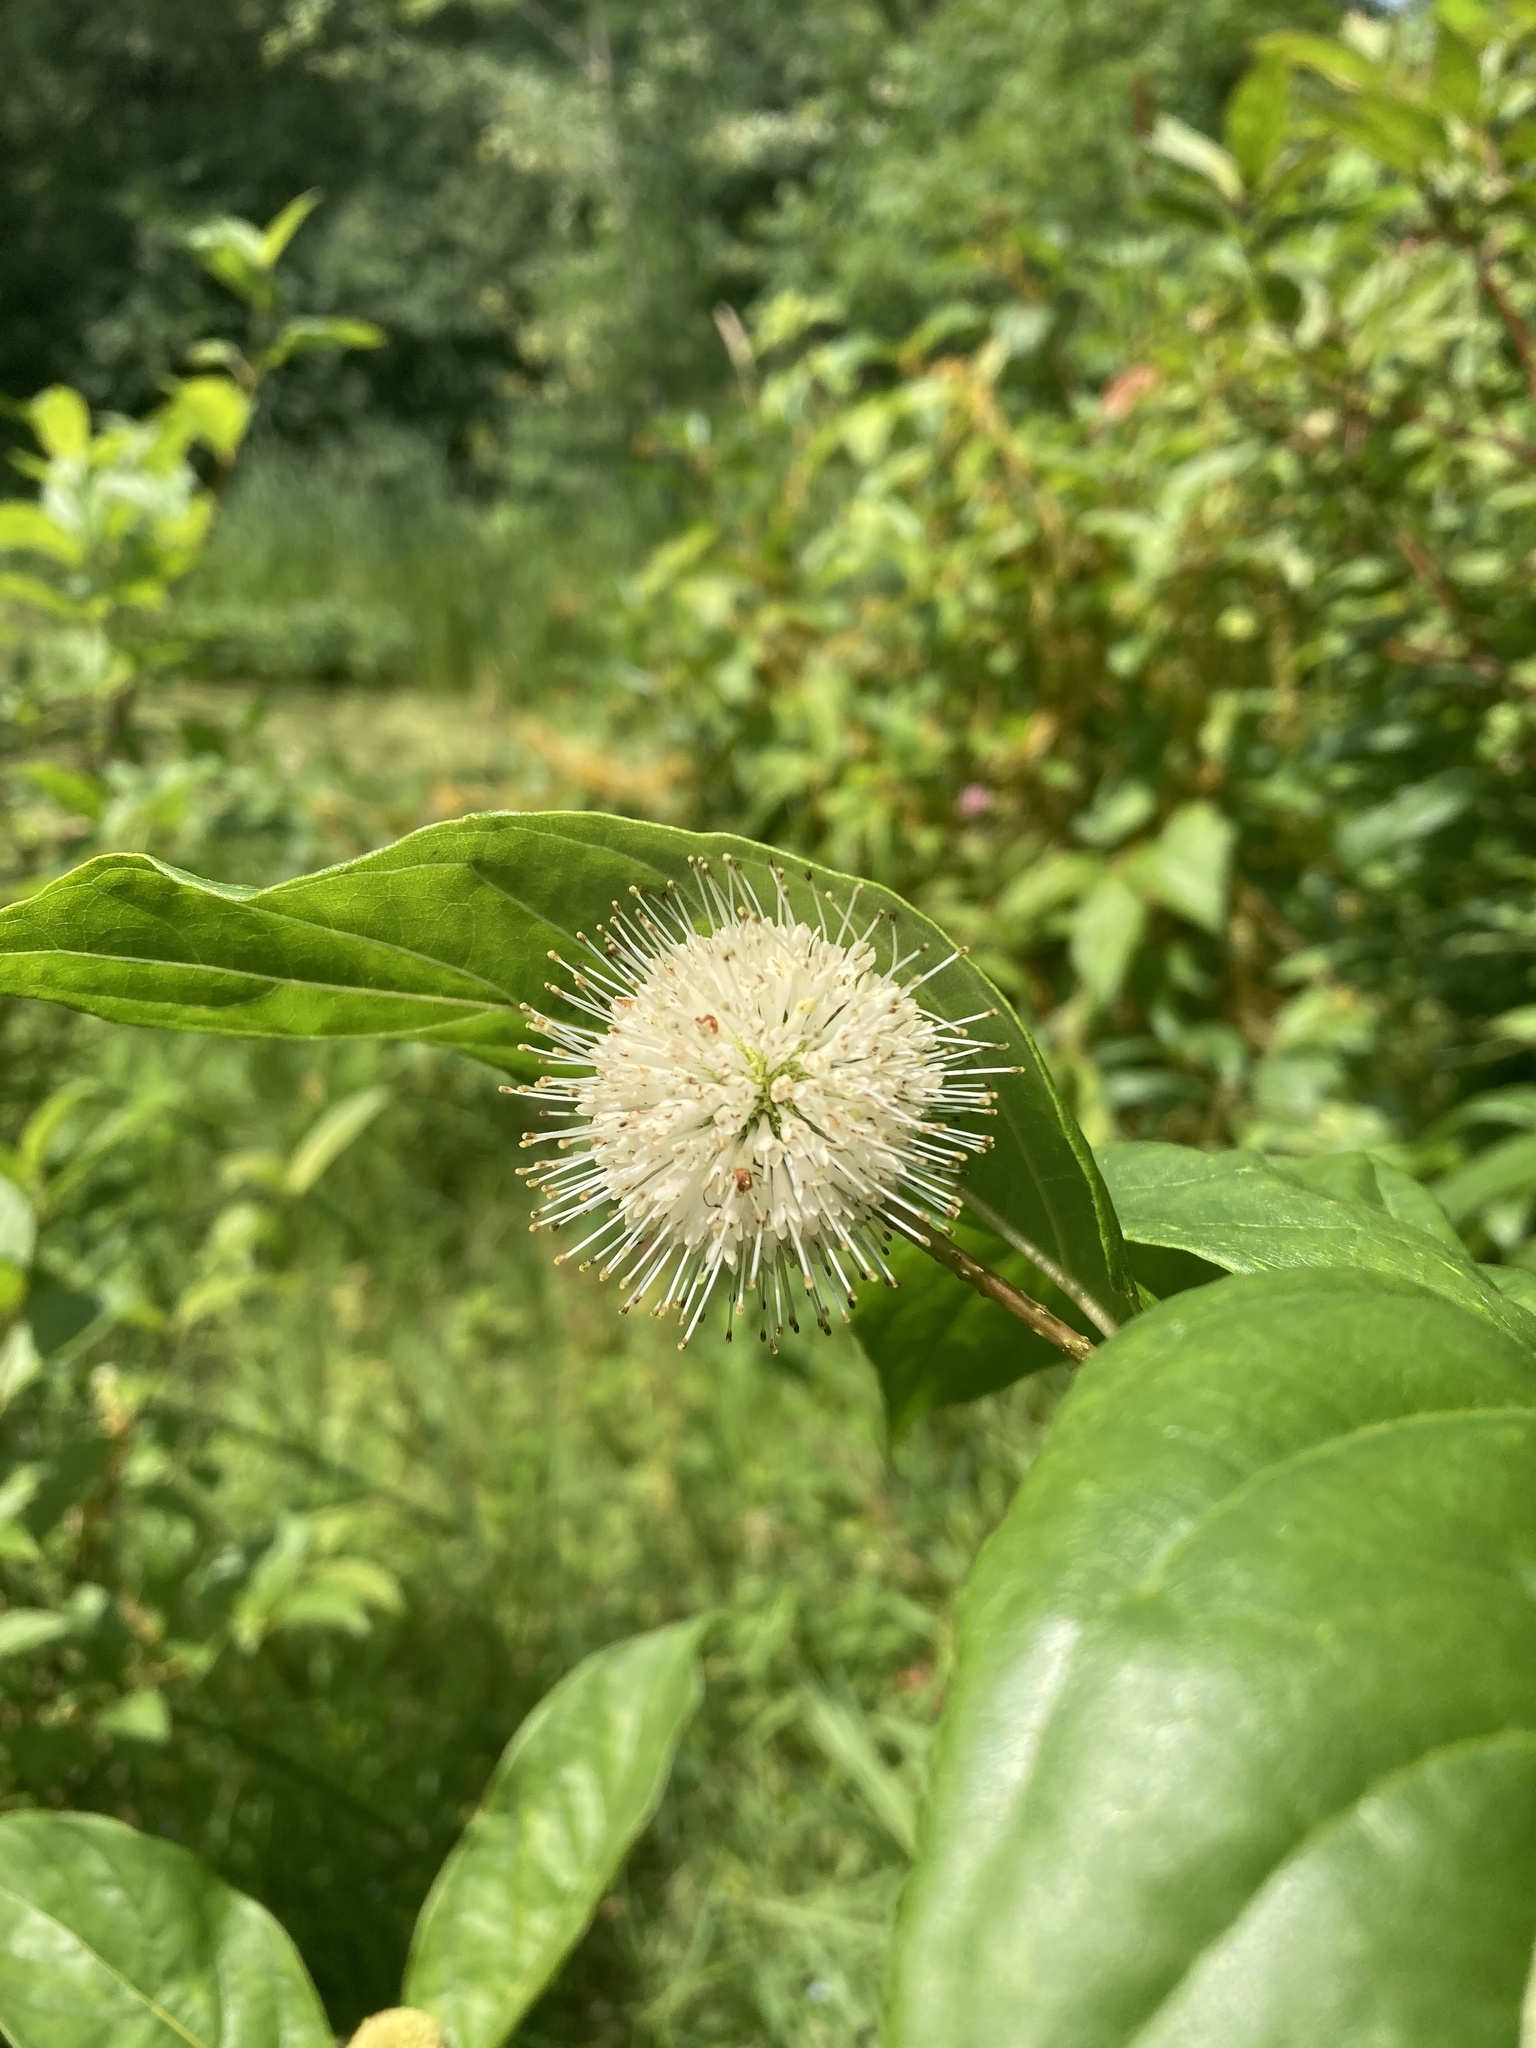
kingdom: Plantae
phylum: Tracheophyta
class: Magnoliopsida
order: Gentianales
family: Rubiaceae
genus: Cephalanthus
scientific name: Cephalanthus occidentalis
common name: Button-willow
